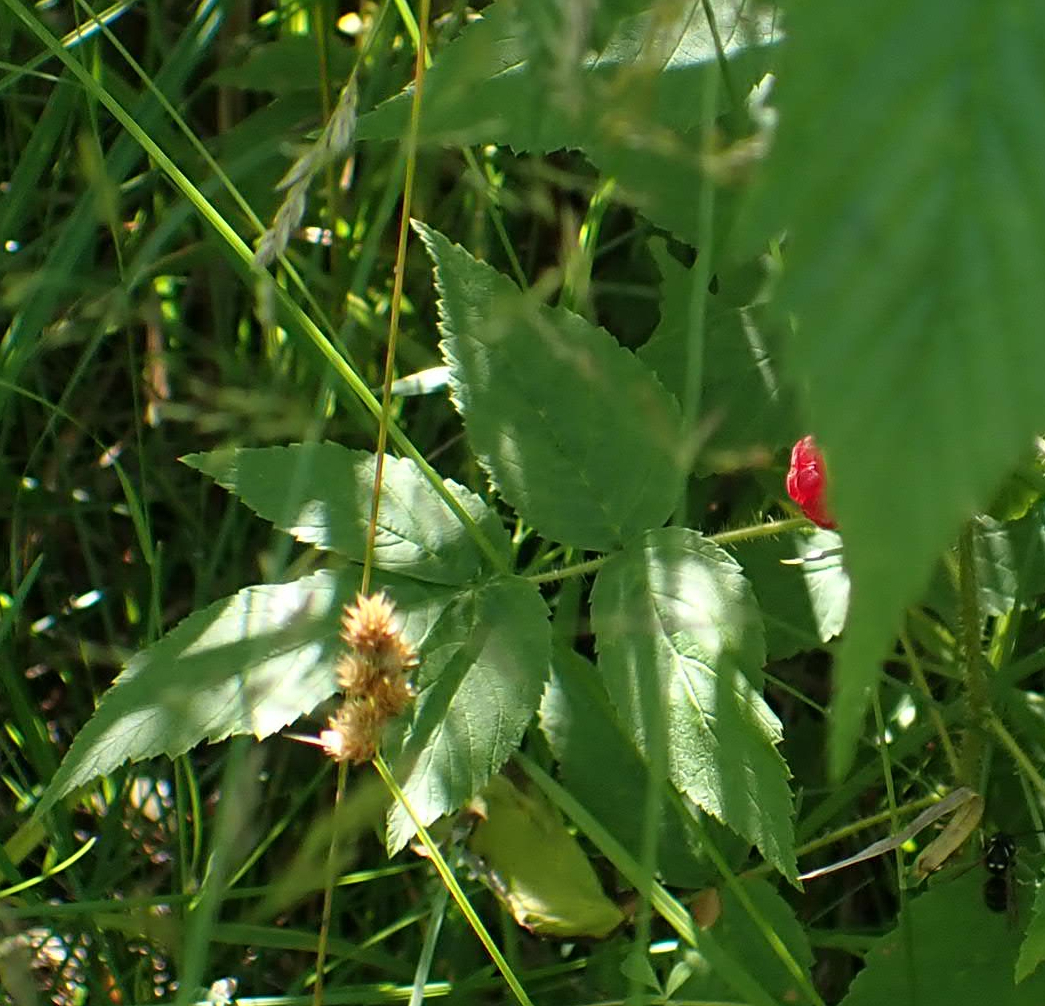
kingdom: Plantae
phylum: Tracheophyta
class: Magnoliopsida
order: Rosales
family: Rosaceae
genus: Rubus
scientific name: Rubus idaeus
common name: Raspberry
